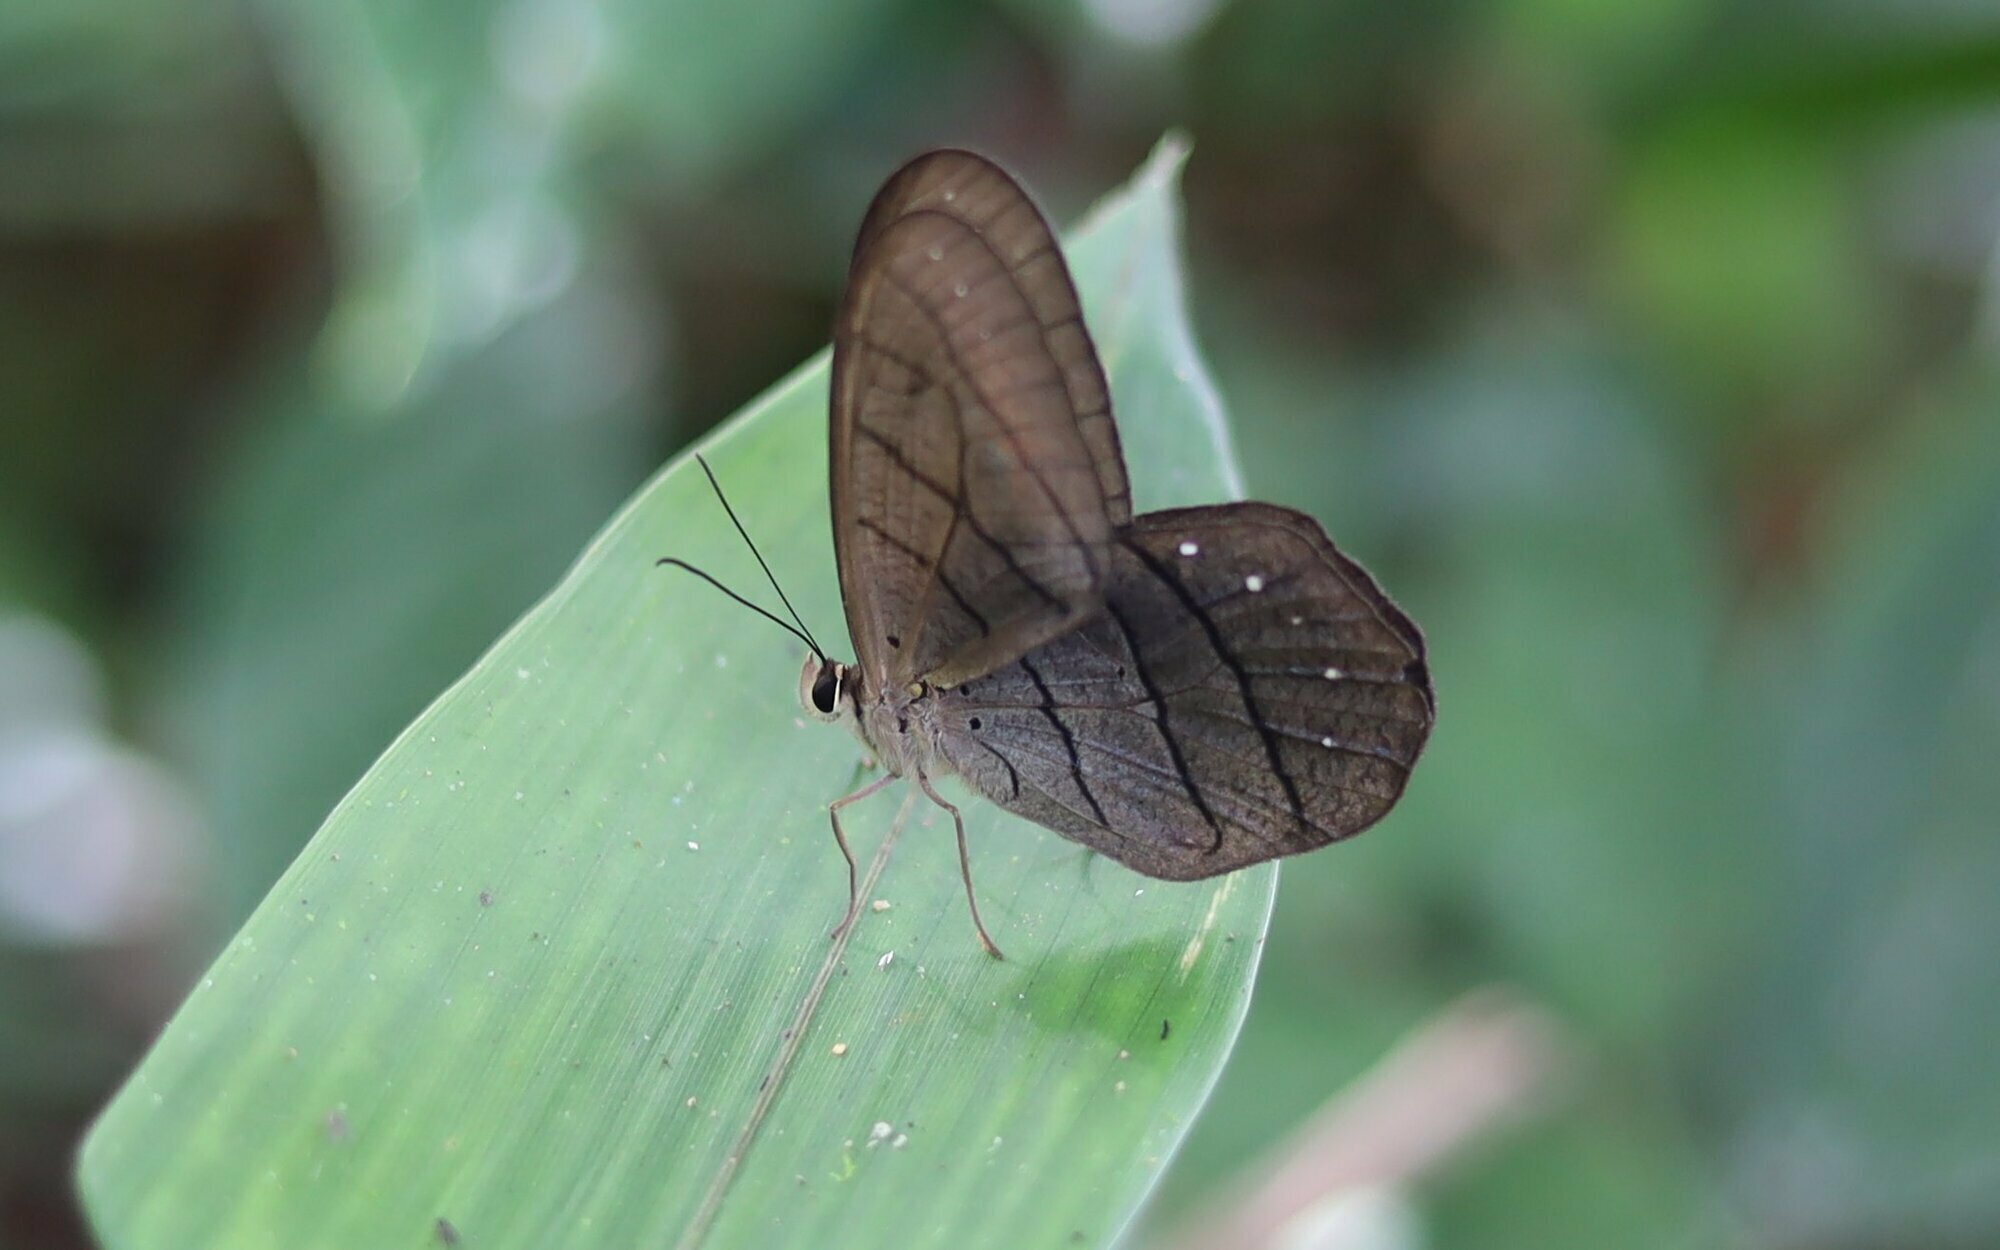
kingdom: Animalia
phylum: Arthropoda
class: Insecta
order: Lepidoptera
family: Nymphalidae
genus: Pierella
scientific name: Pierella rhea
